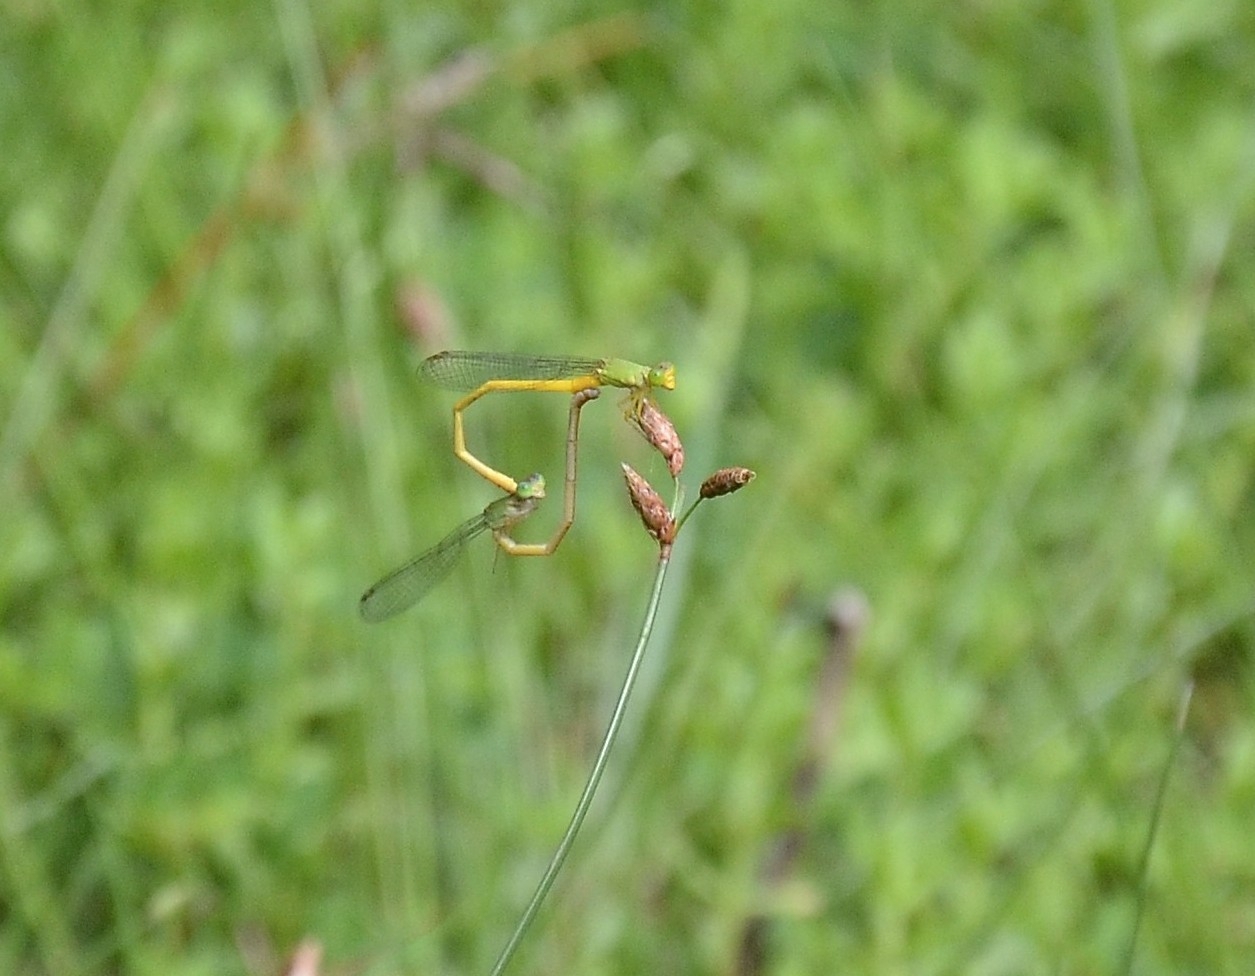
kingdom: Animalia
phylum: Arthropoda
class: Insecta
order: Odonata
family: Coenagrionidae
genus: Ceriagrion
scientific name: Ceriagrion coromandelianum
